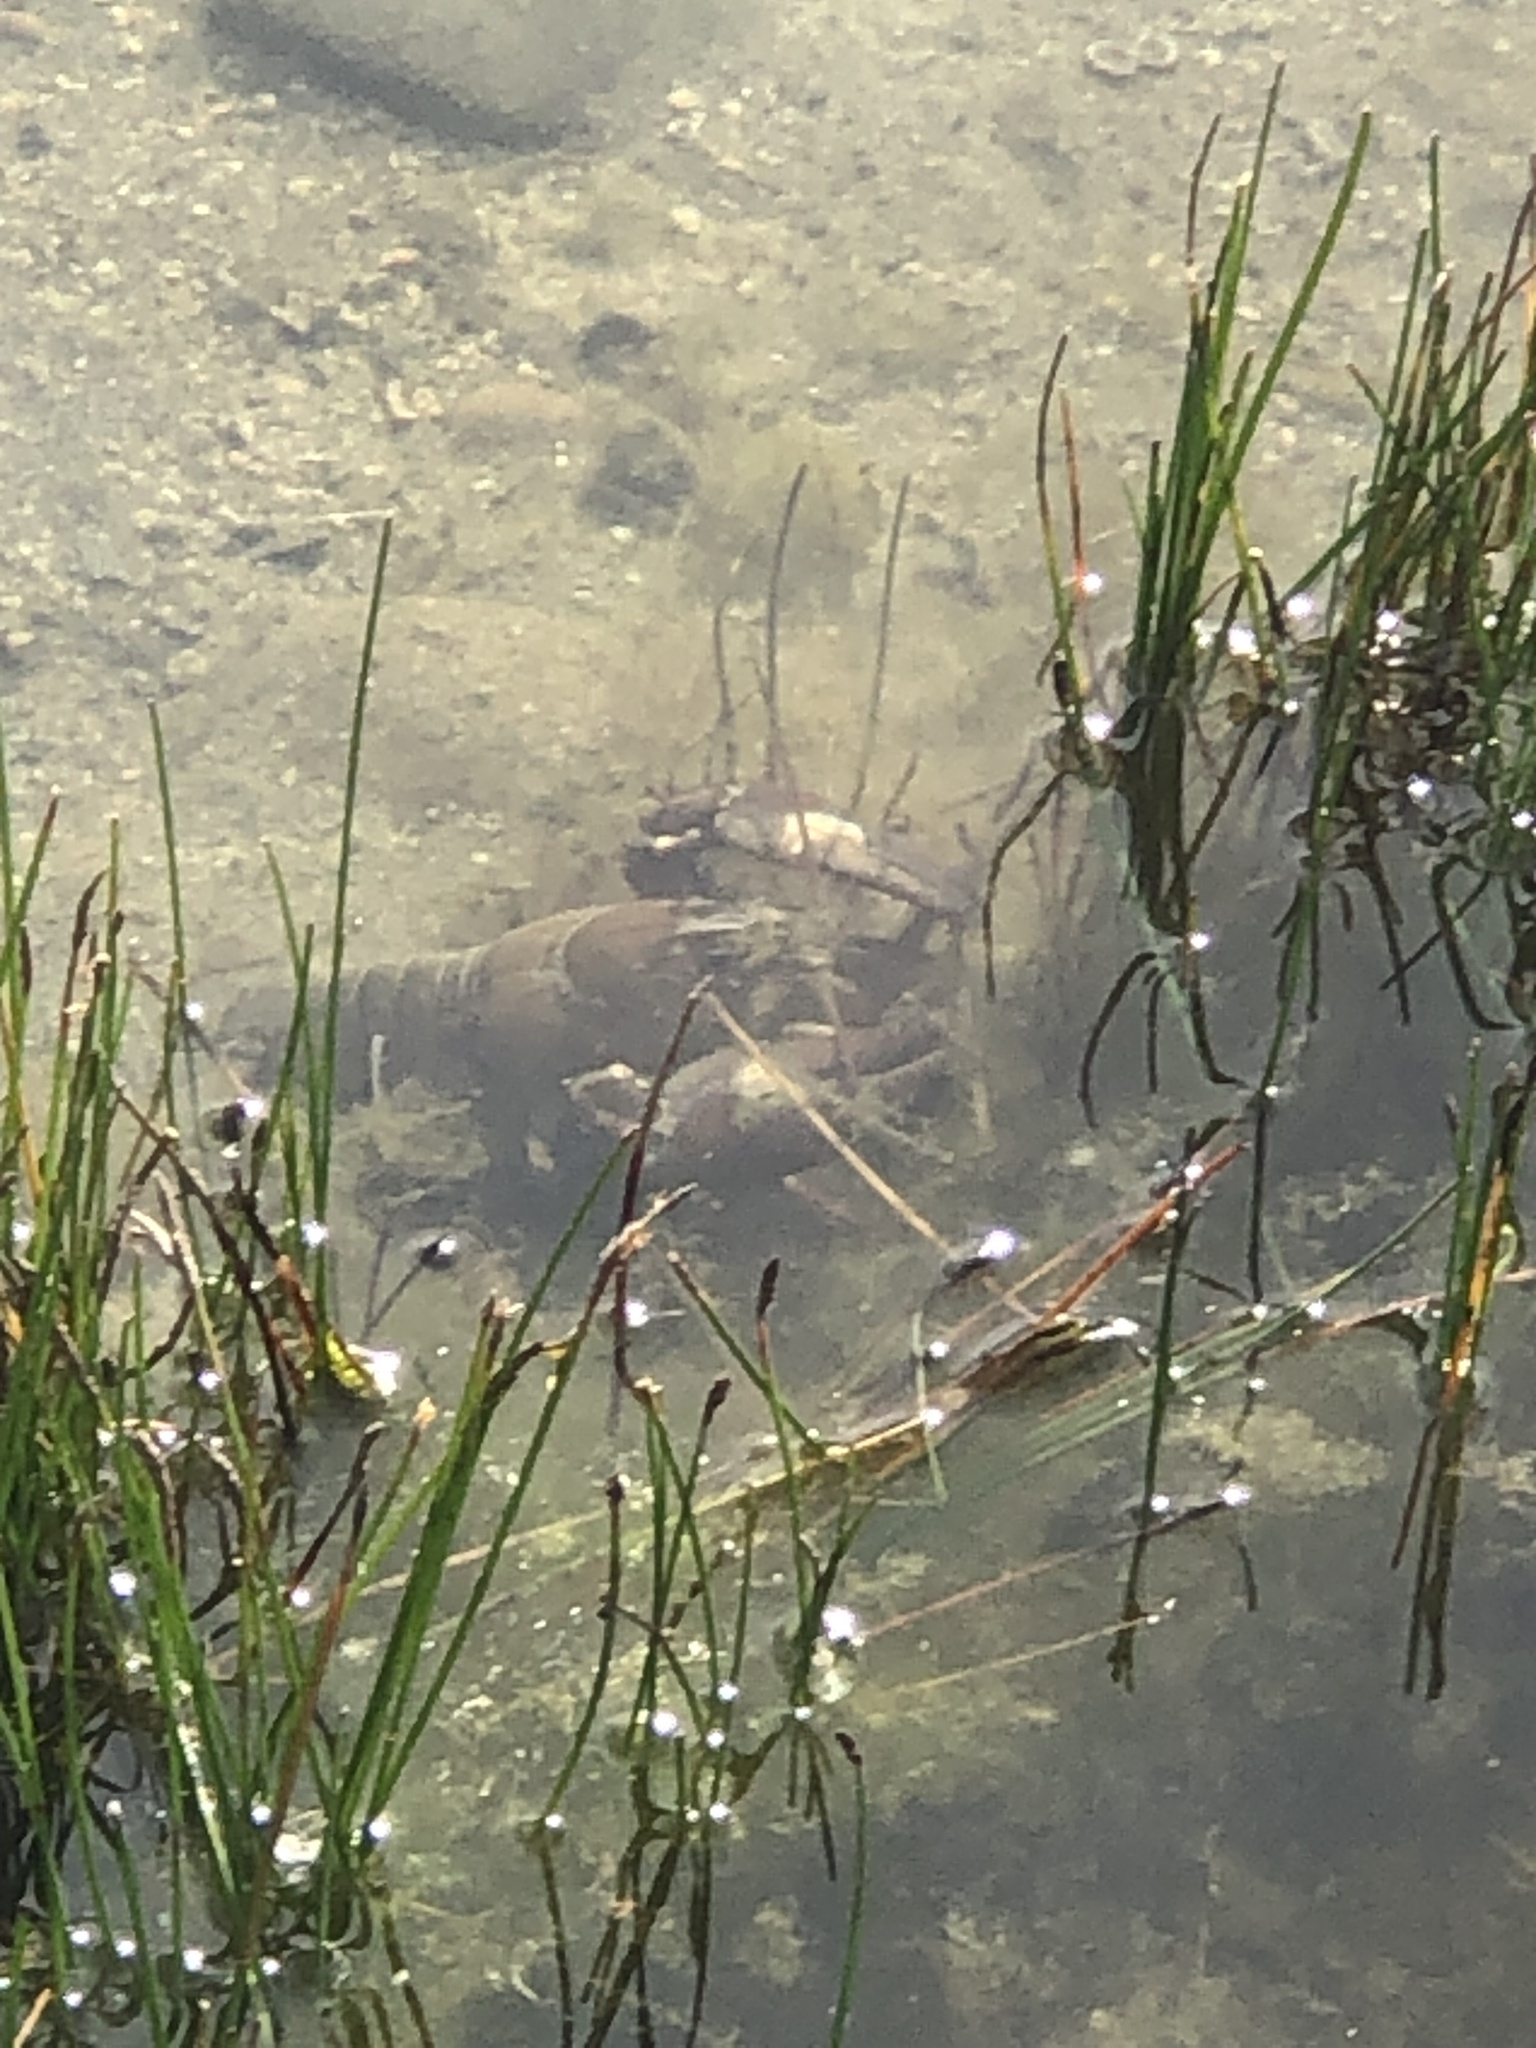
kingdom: Animalia
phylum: Arthropoda
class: Malacostraca
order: Decapoda
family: Astacidae
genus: Pacifastacus
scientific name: Pacifastacus leniusculus
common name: Signal crayfish
